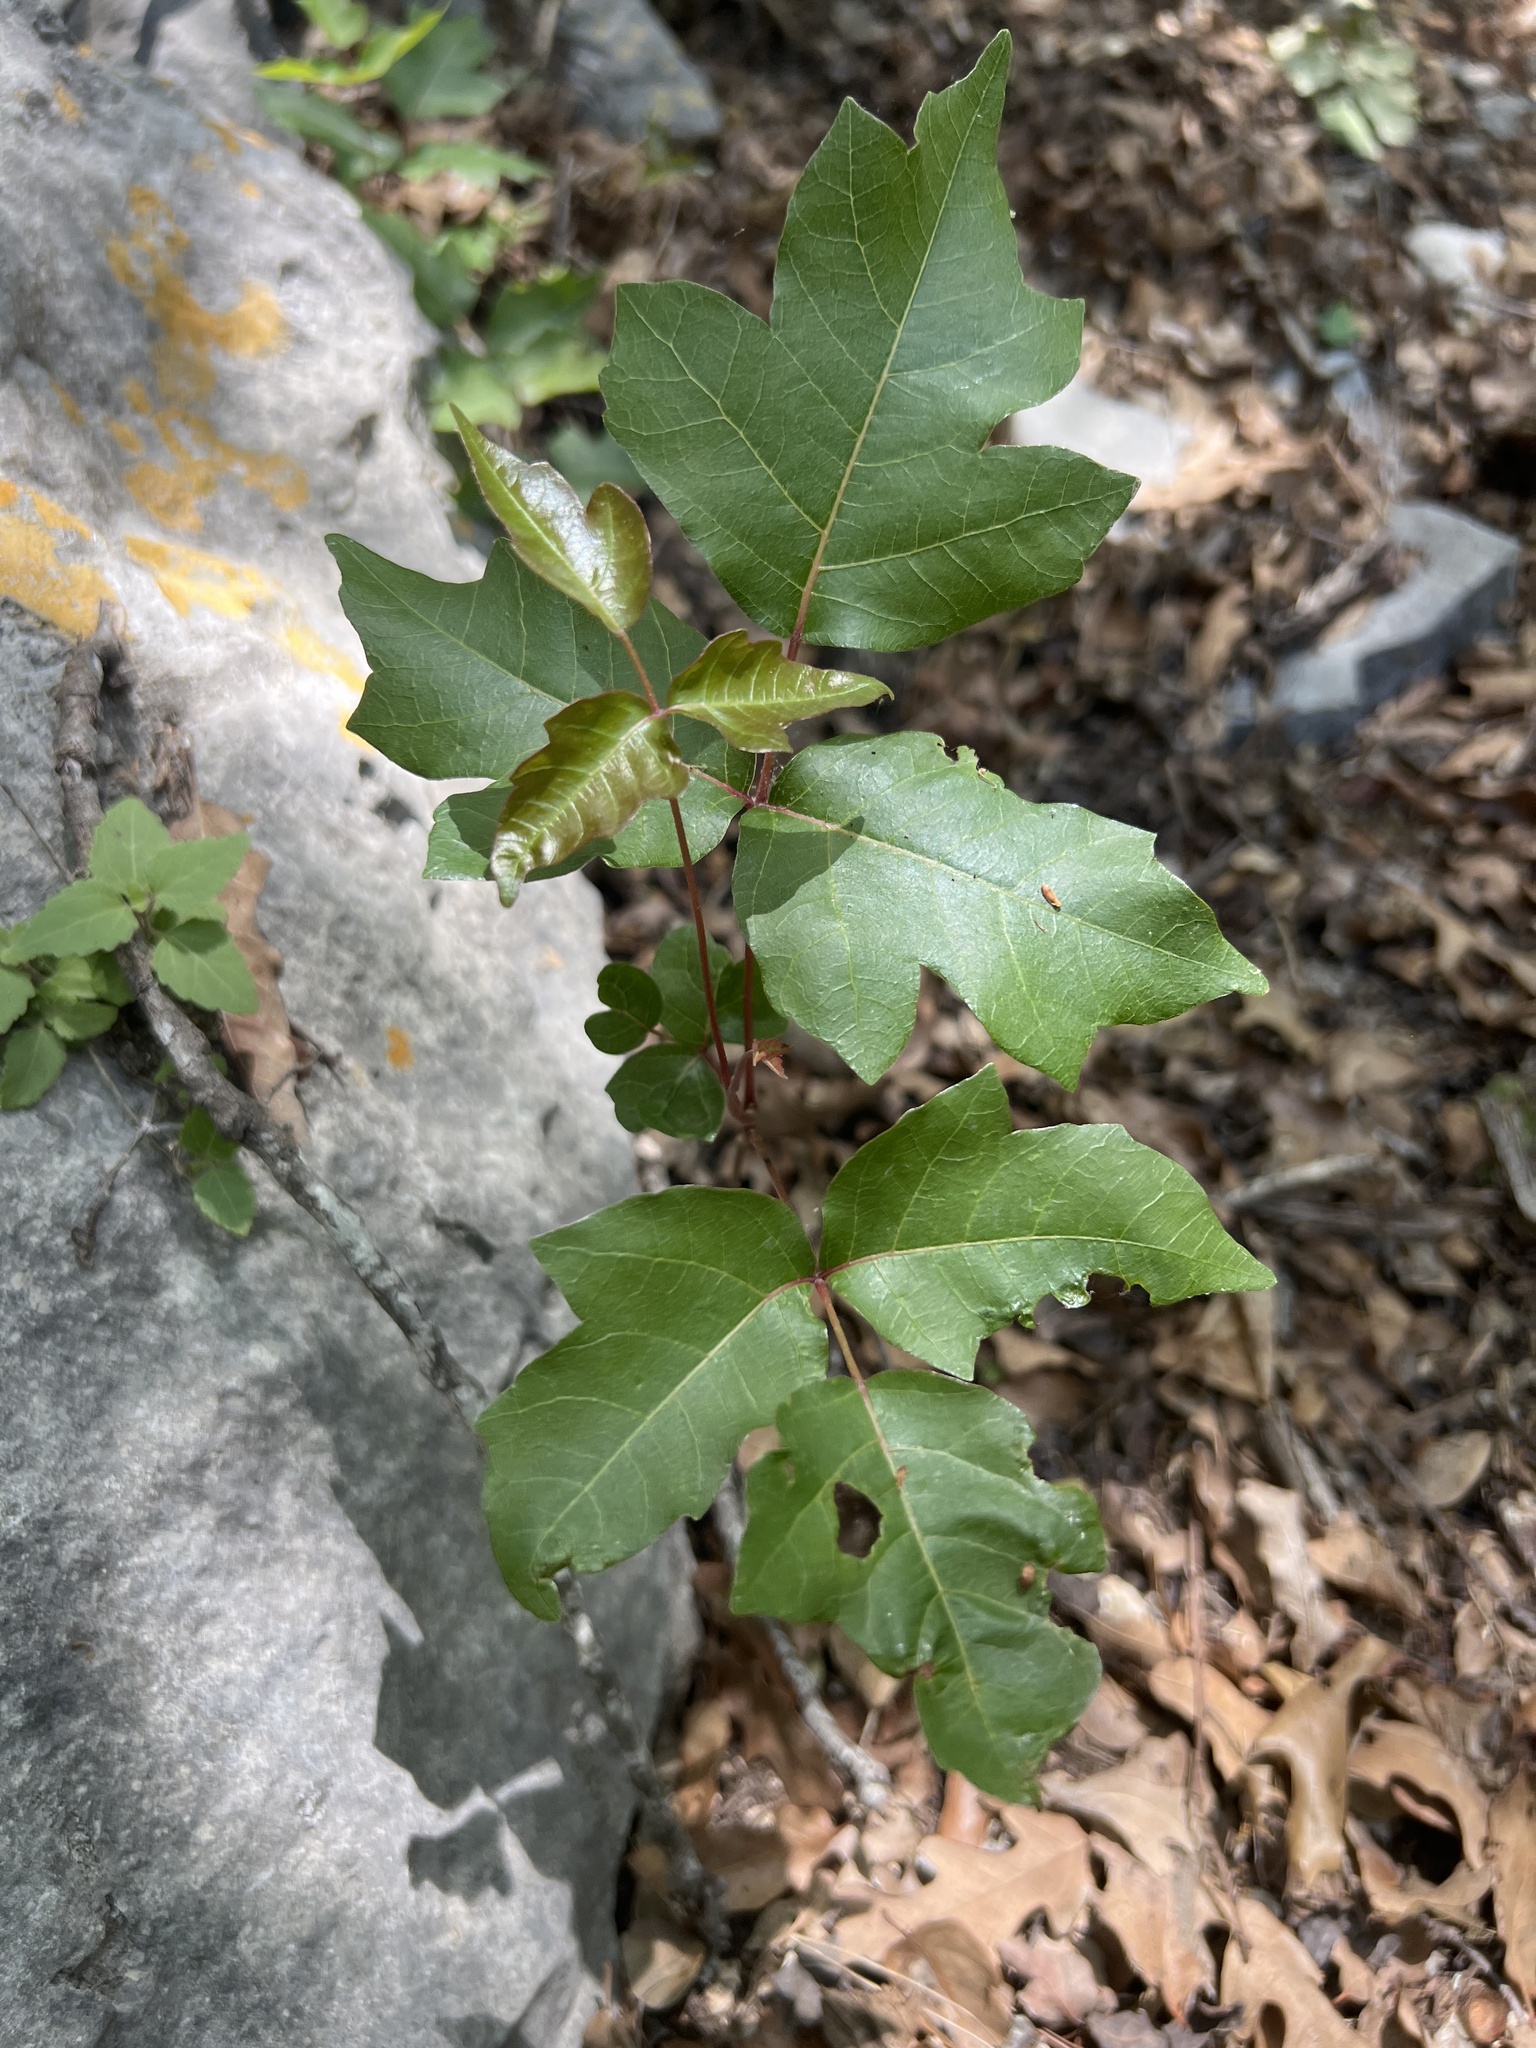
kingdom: Plantae
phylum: Tracheophyta
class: Magnoliopsida
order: Sapindales
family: Anacardiaceae
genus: Toxicodendron
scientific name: Toxicodendron radicans
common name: Poison ivy
